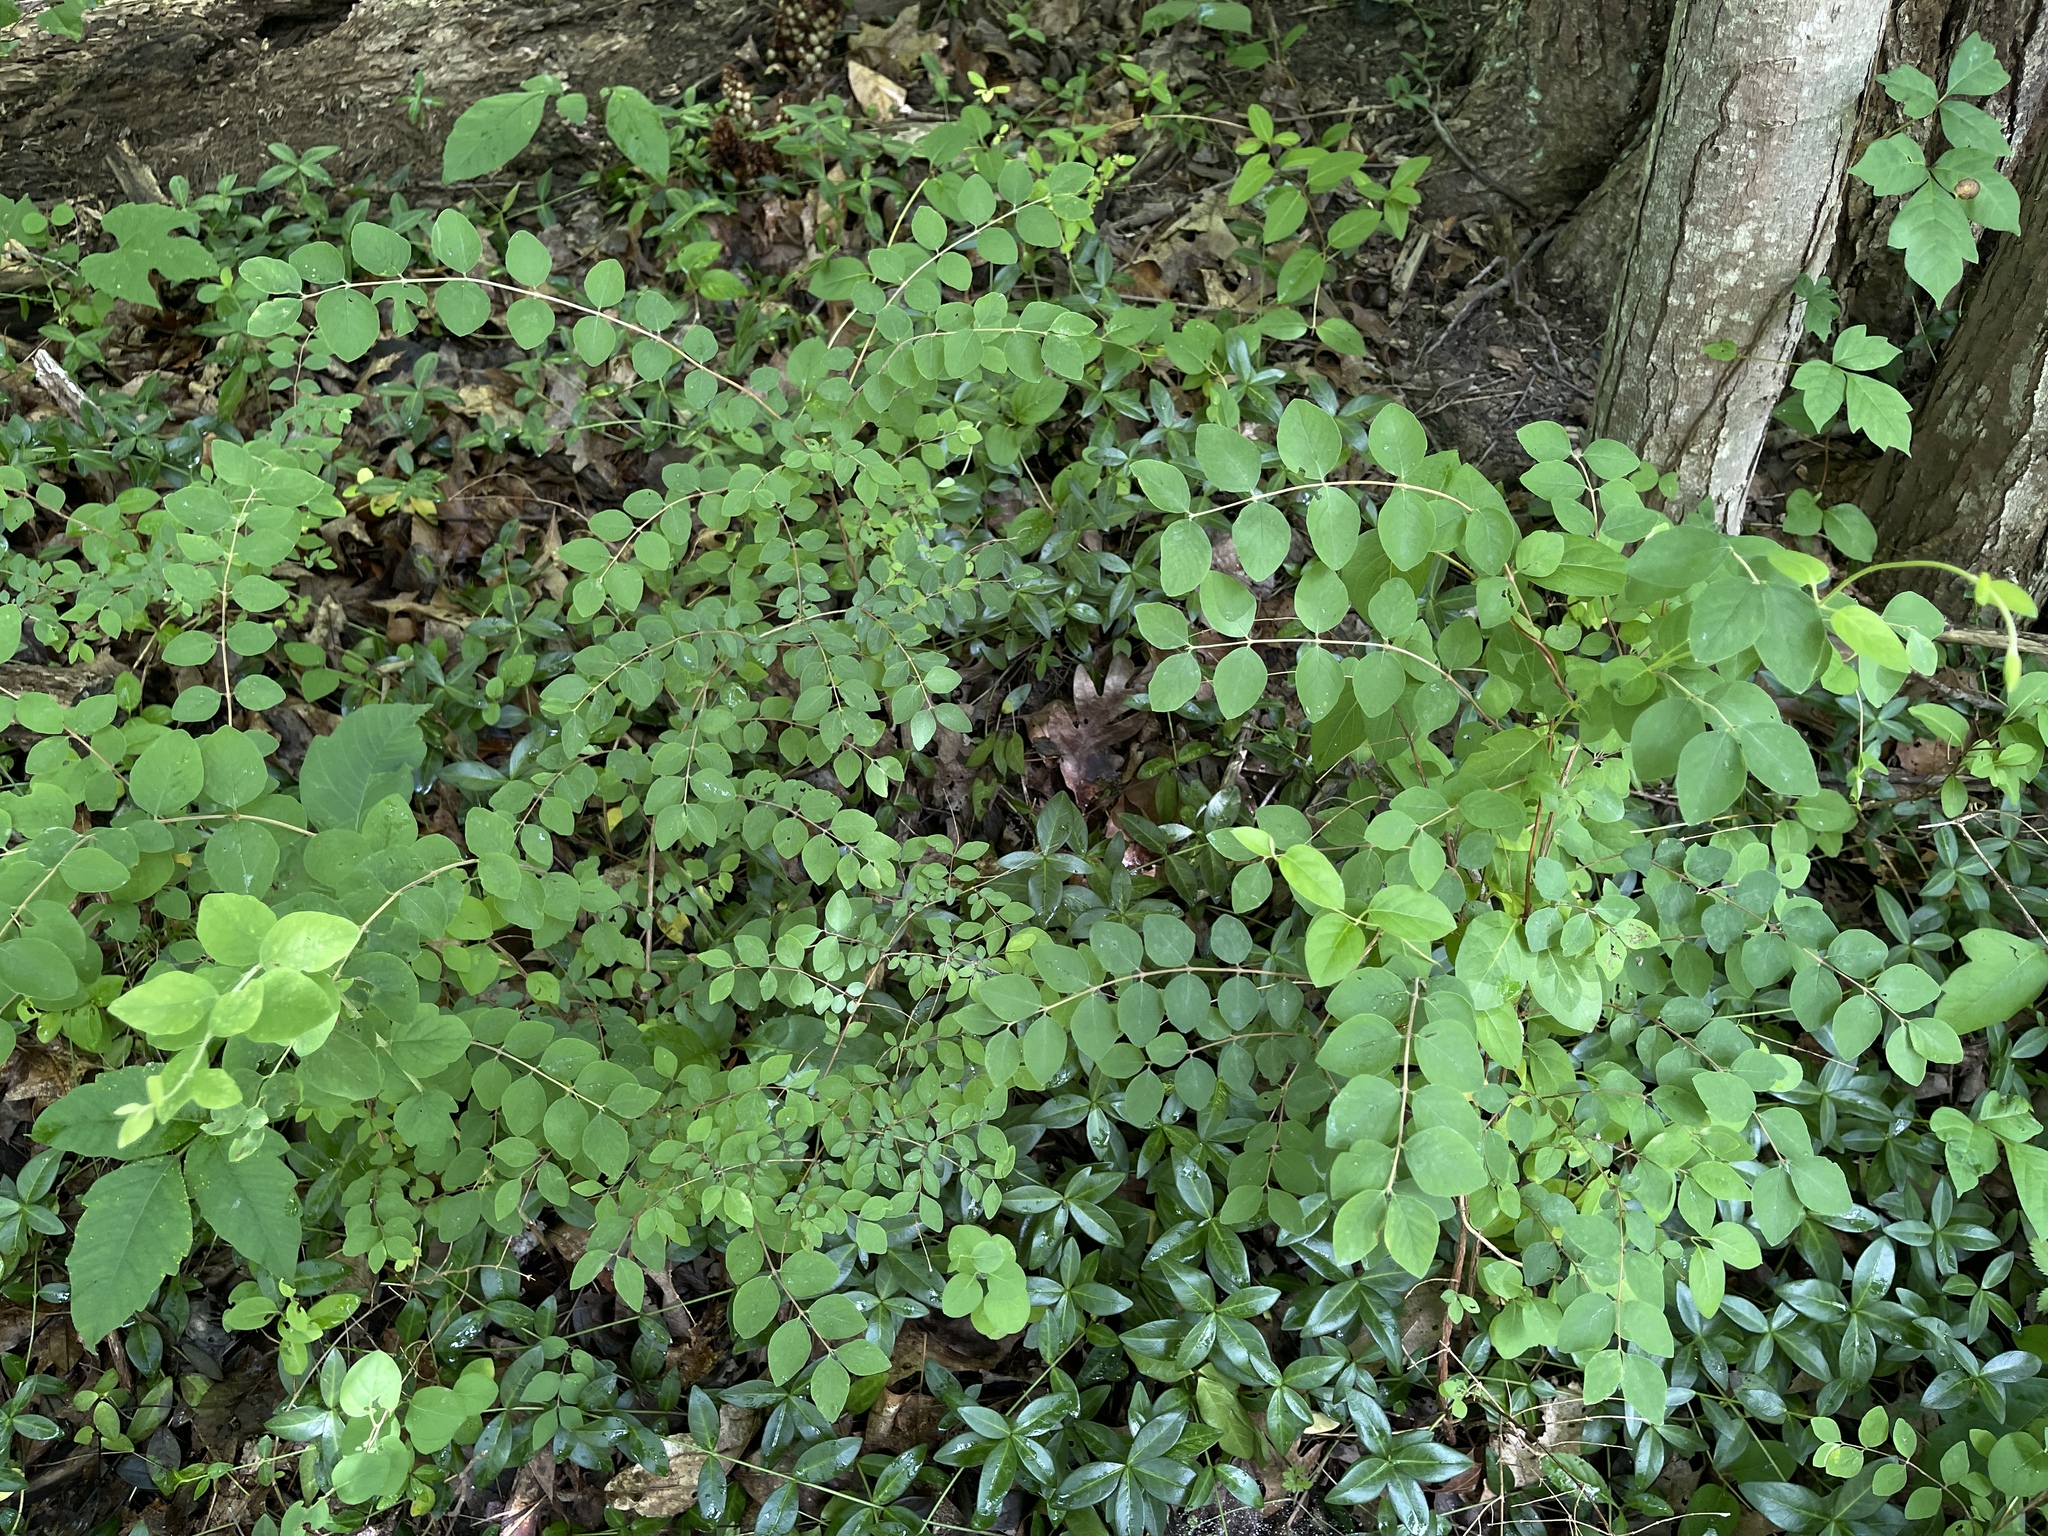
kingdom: Plantae
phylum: Tracheophyta
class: Magnoliopsida
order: Dipsacales
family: Caprifoliaceae
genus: Symphoricarpos
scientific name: Symphoricarpos orbiculatus
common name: Coralberry
